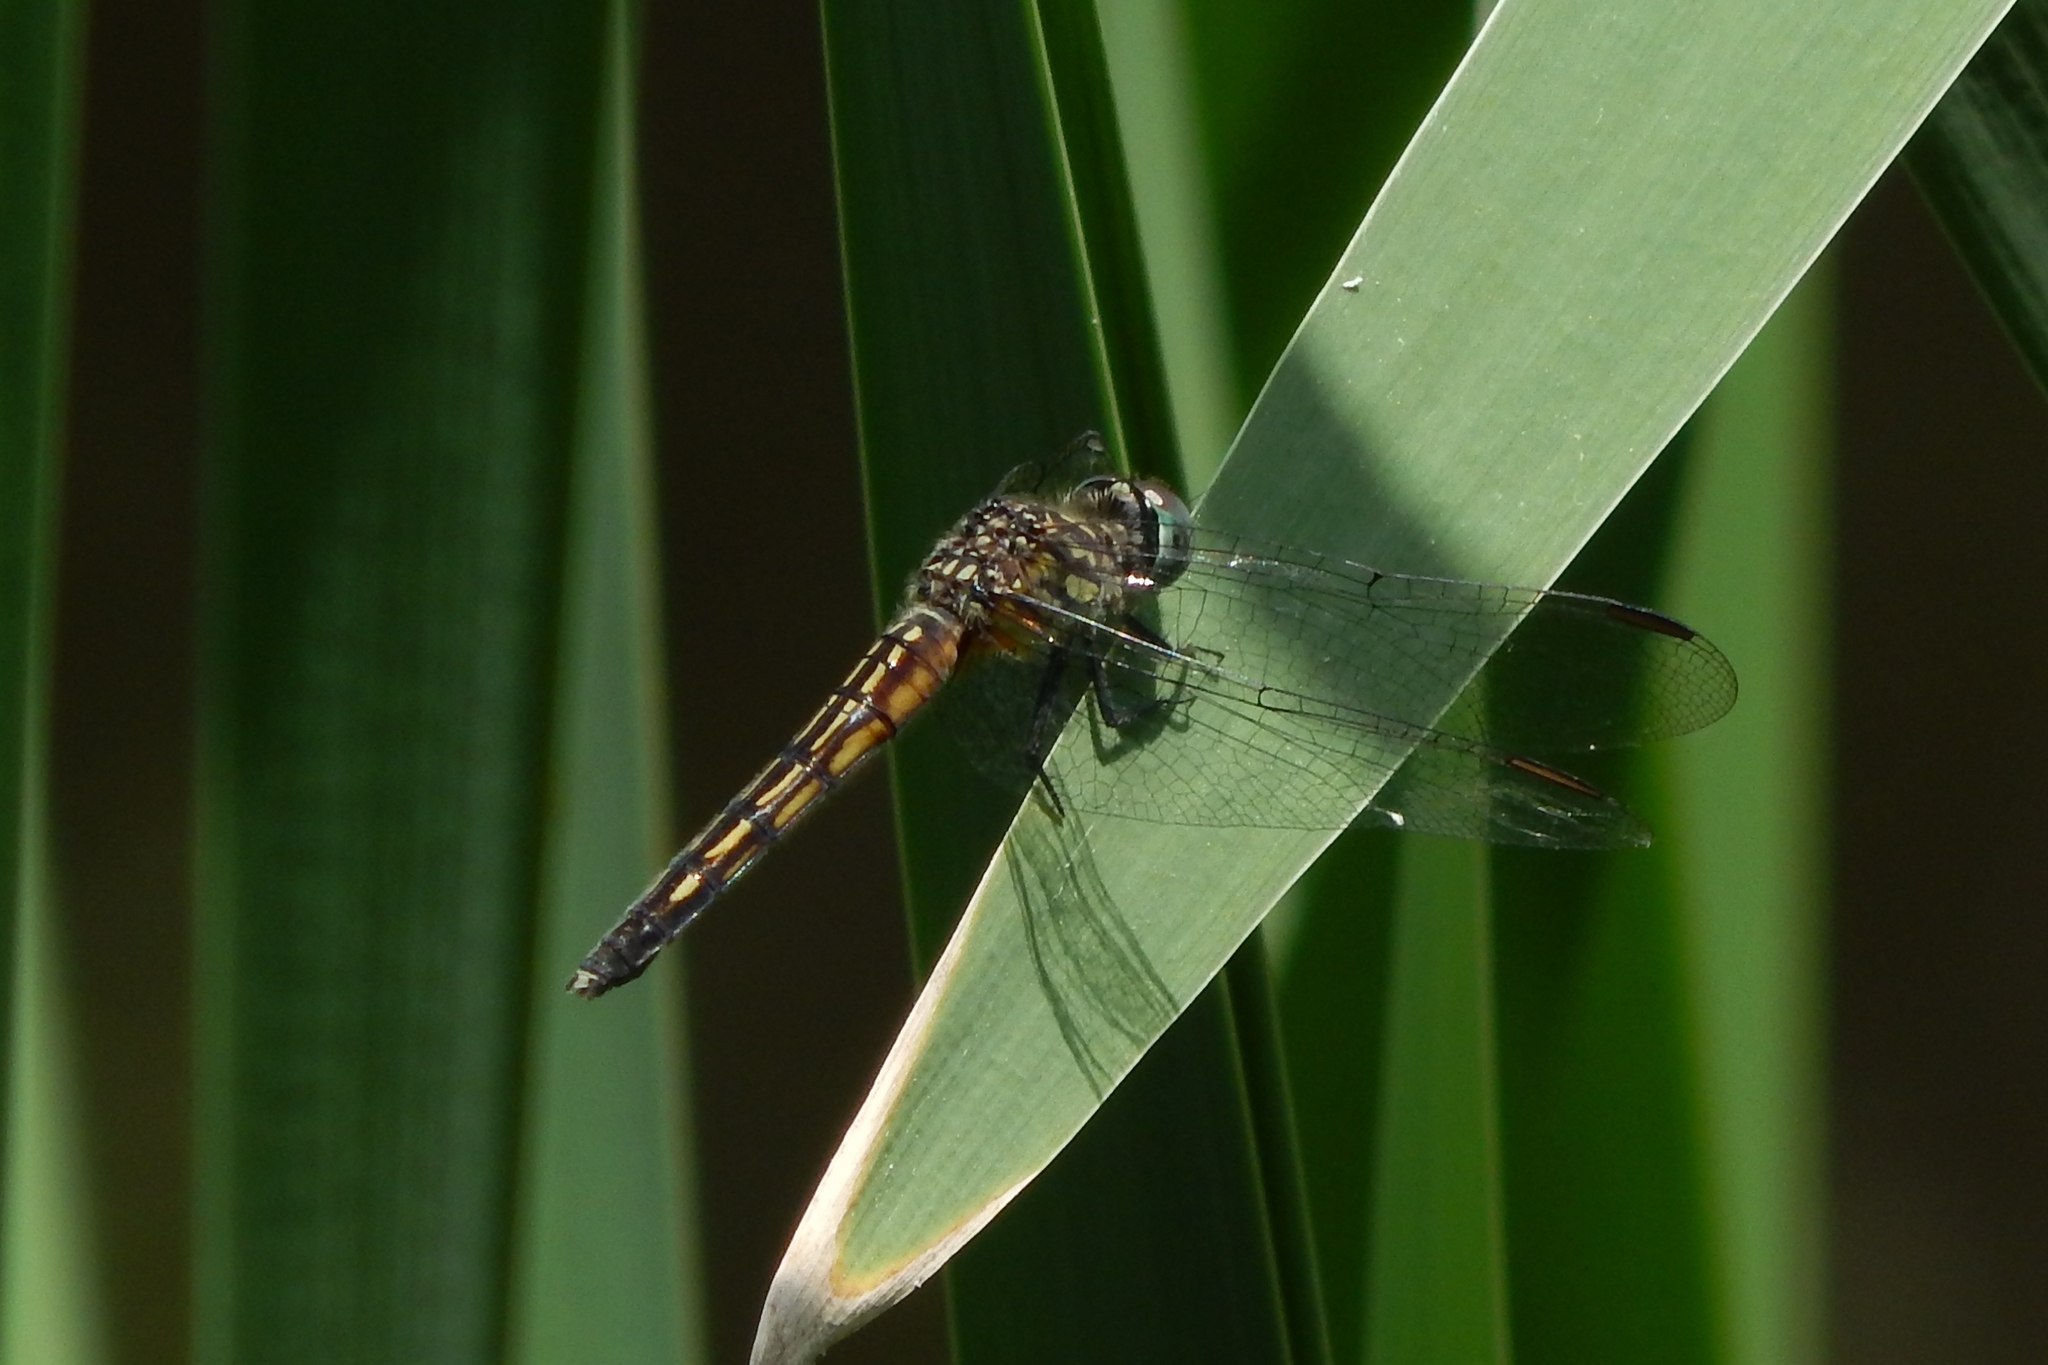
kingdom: Animalia
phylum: Arthropoda
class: Insecta
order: Odonata
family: Libellulidae
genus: Pachydiplax
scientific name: Pachydiplax longipennis
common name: Blue dasher
